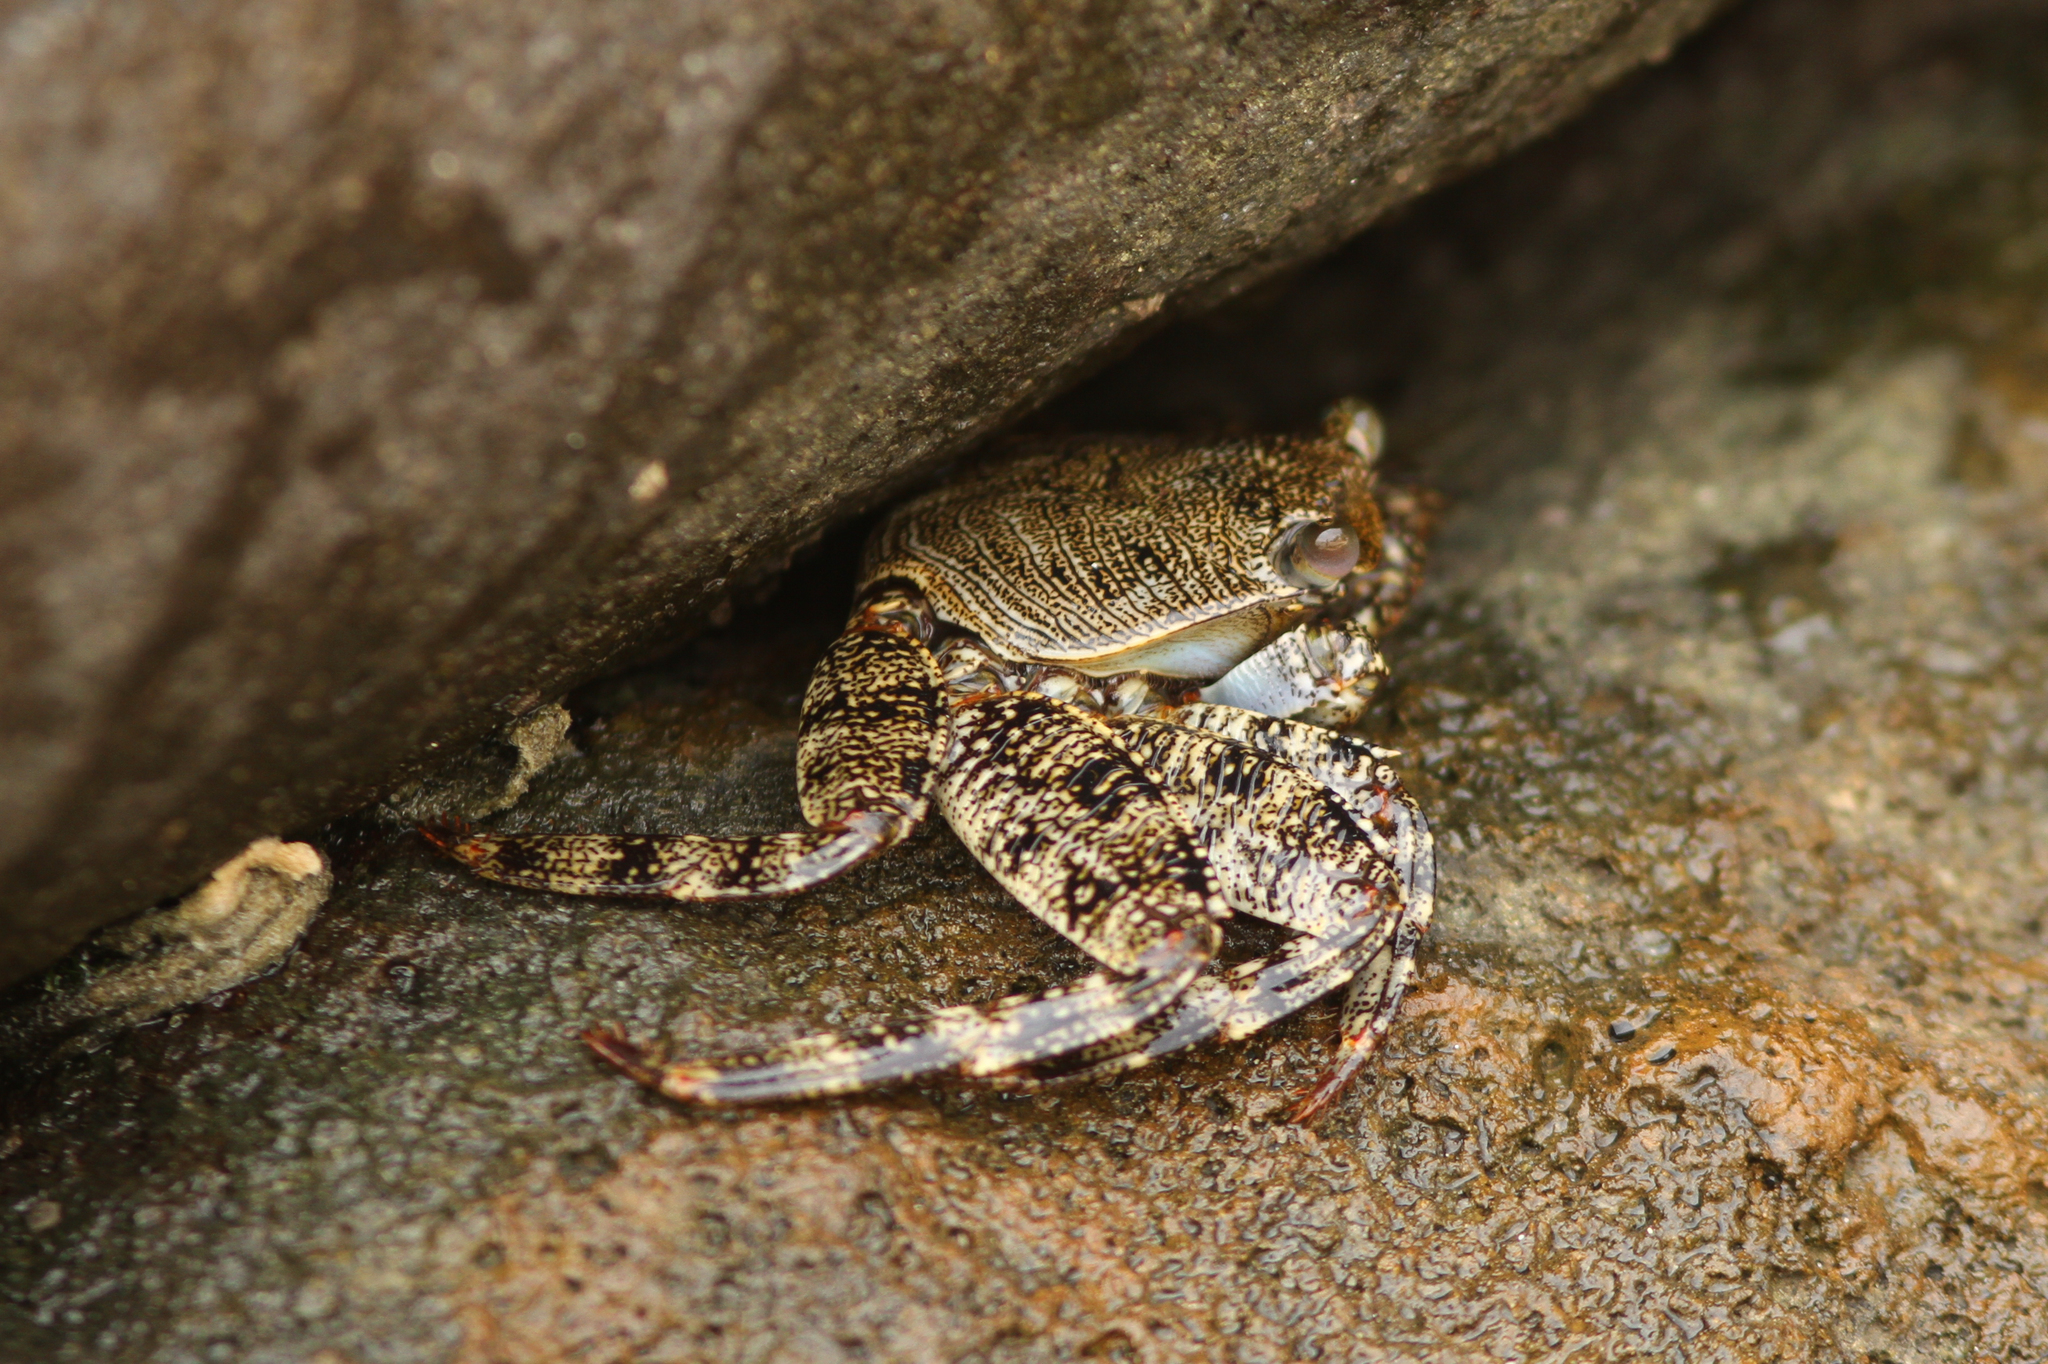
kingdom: Animalia
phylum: Arthropoda
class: Malacostraca
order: Decapoda
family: Grapsidae
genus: Grapsus
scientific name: Grapsus adscensionis
